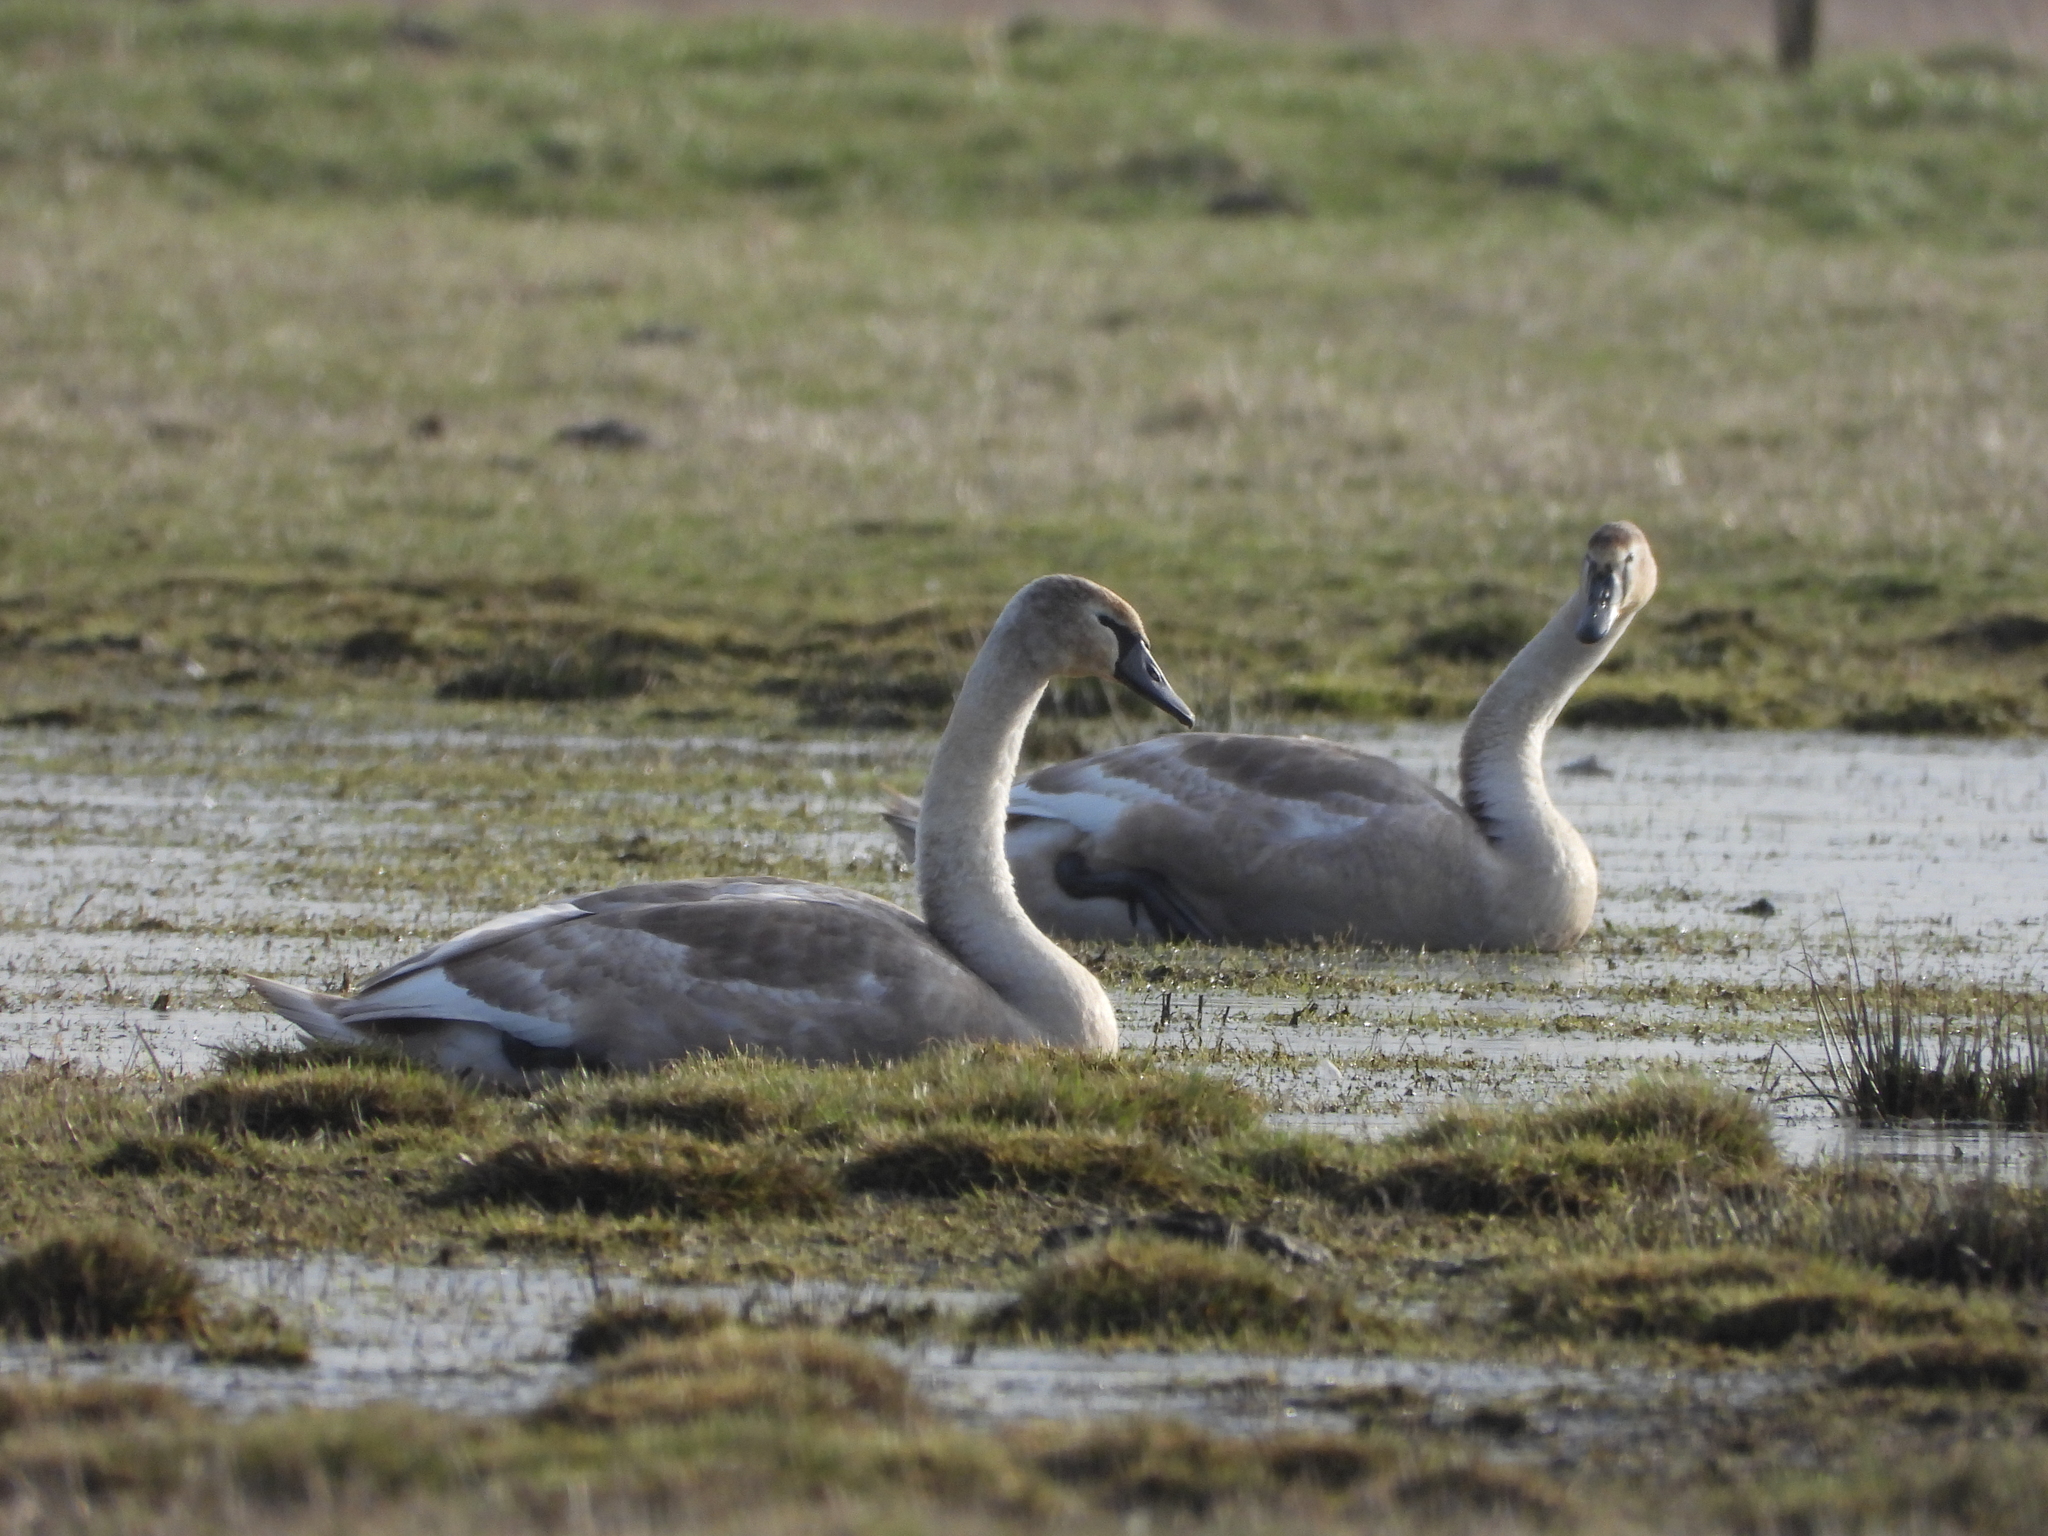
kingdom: Animalia
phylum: Chordata
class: Aves
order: Anseriformes
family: Anatidae
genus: Cygnus
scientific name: Cygnus olor
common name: Mute swan
